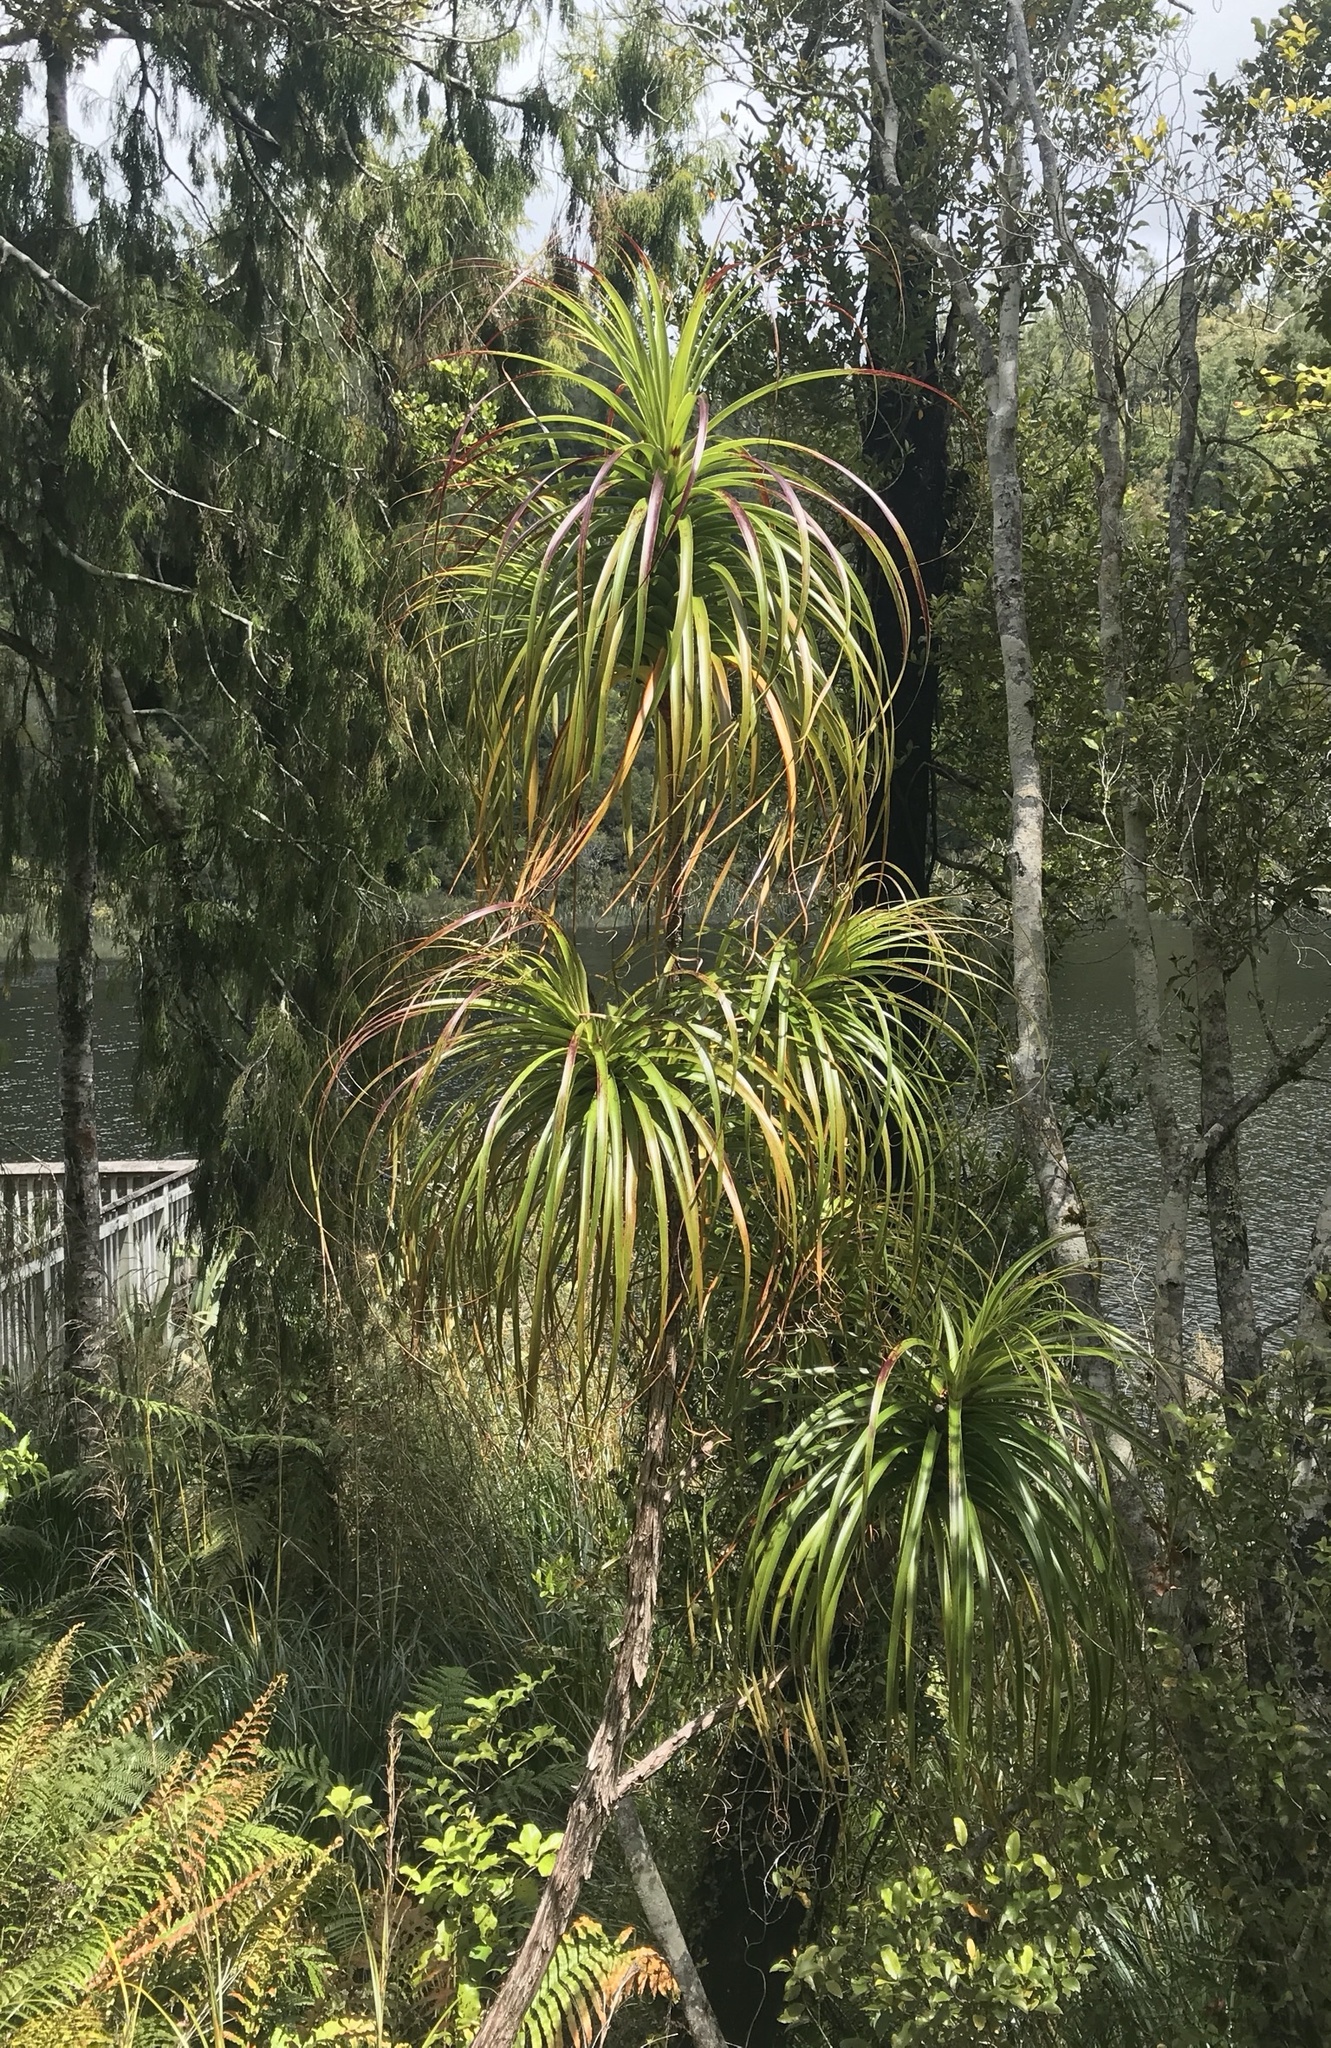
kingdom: Plantae
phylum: Tracheophyta
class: Magnoliopsida
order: Ericales
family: Ericaceae
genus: Dracophyllum
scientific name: Dracophyllum elegantissimum
